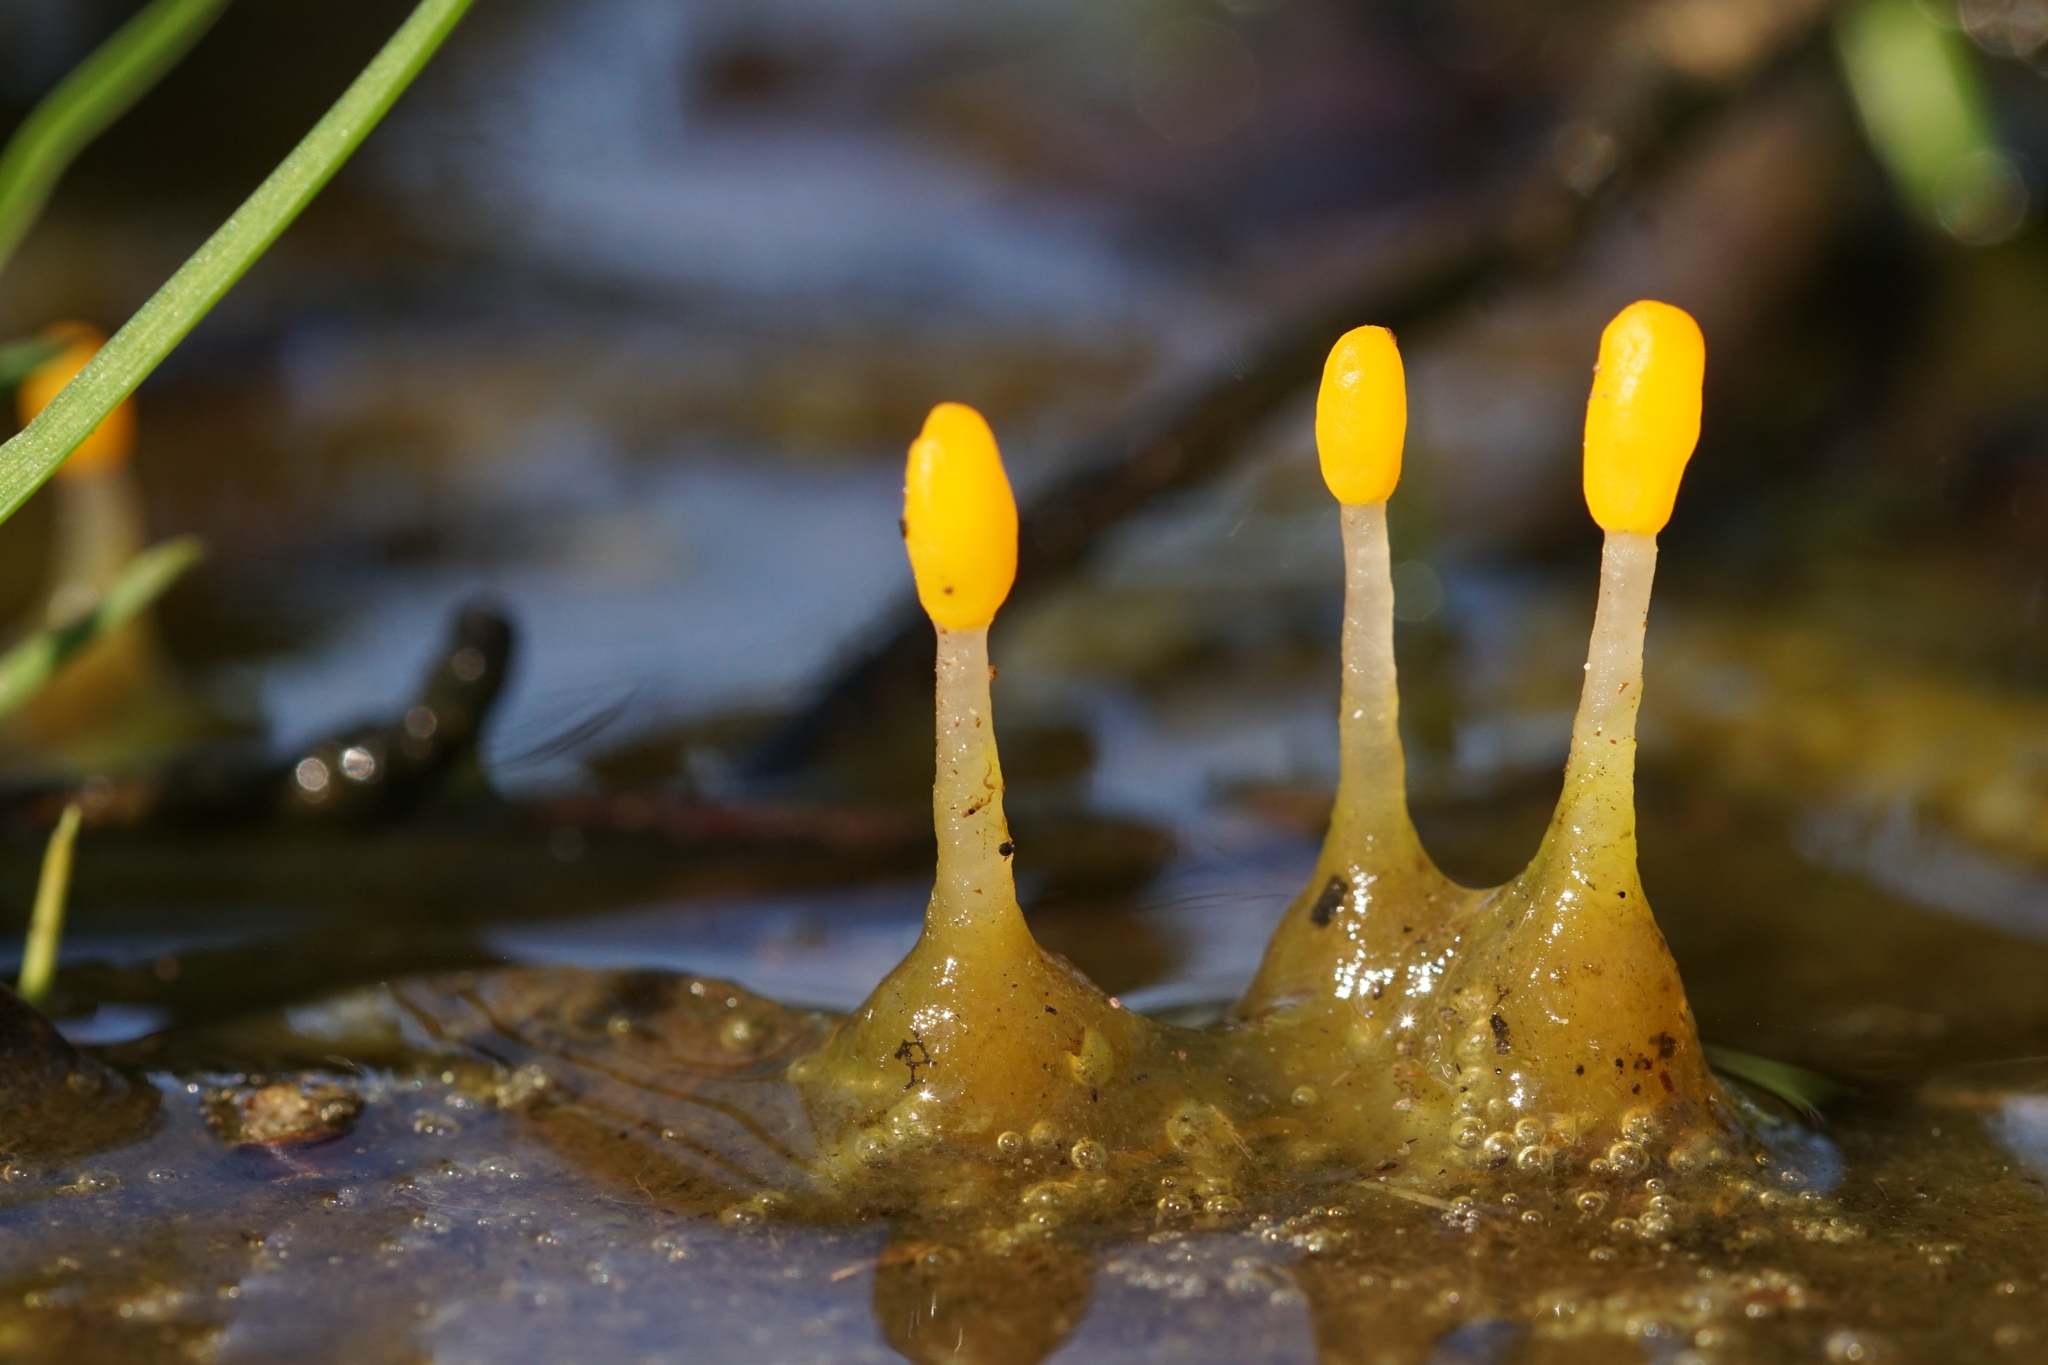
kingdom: Fungi
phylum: Ascomycota
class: Leotiomycetes
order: Helotiales
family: Cenangiaceae
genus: Mitrula
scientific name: Mitrula paludosa
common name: Bog beacon
